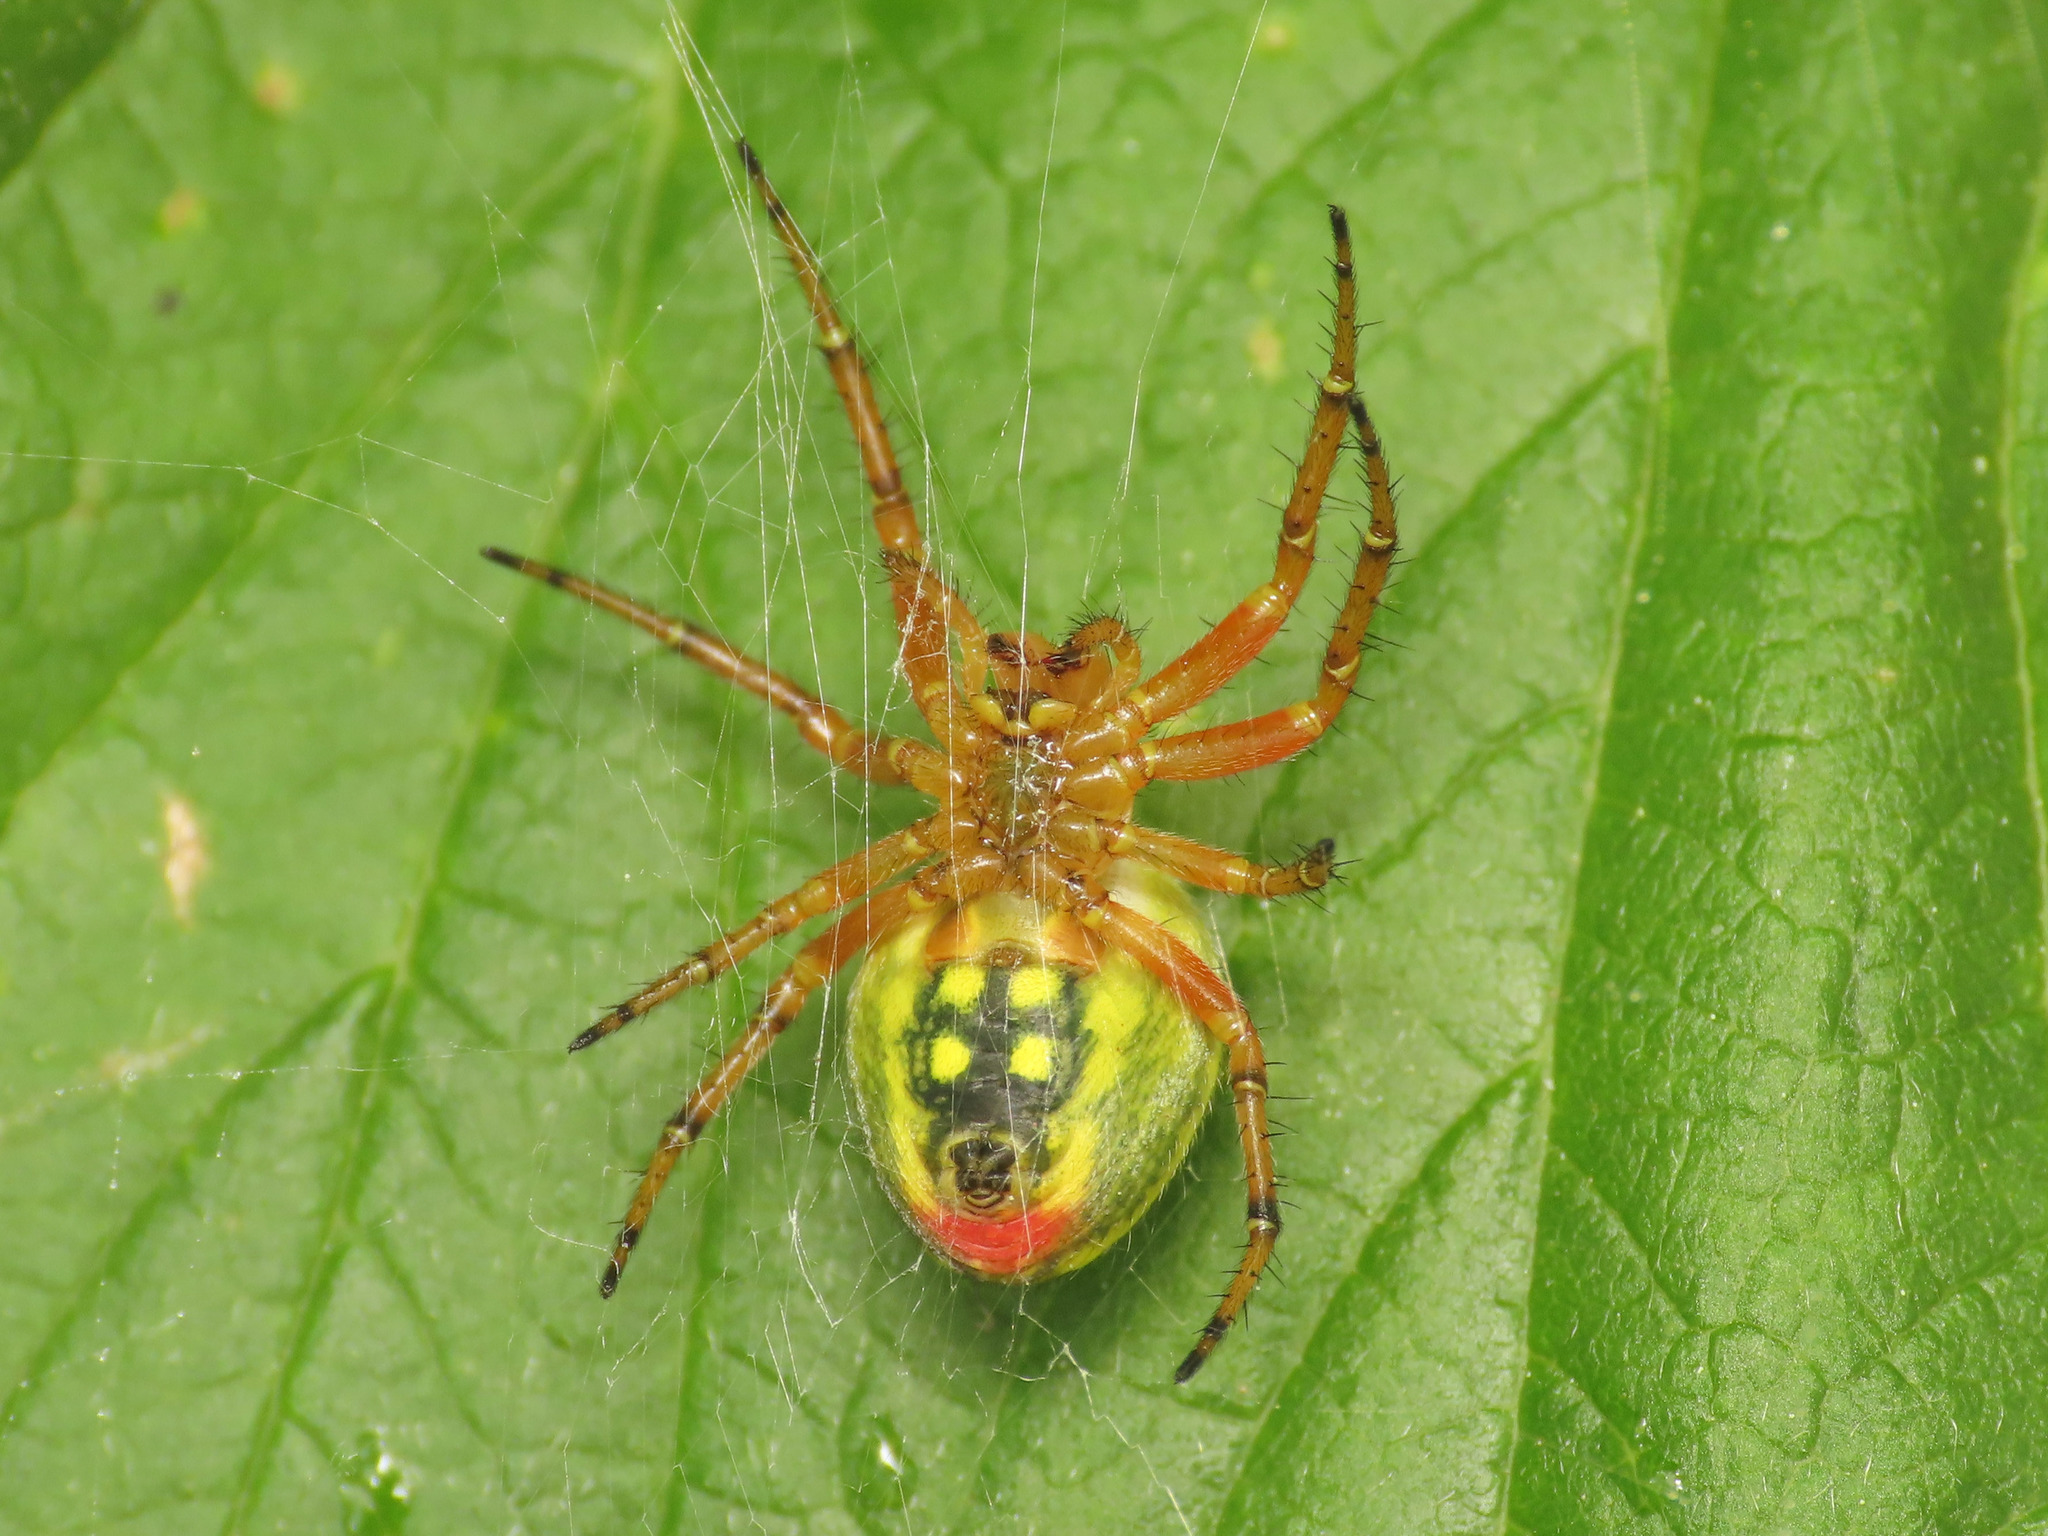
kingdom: Animalia
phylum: Arthropoda
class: Arachnida
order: Araneae
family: Araneidae
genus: Araniella
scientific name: Araniella alpica
